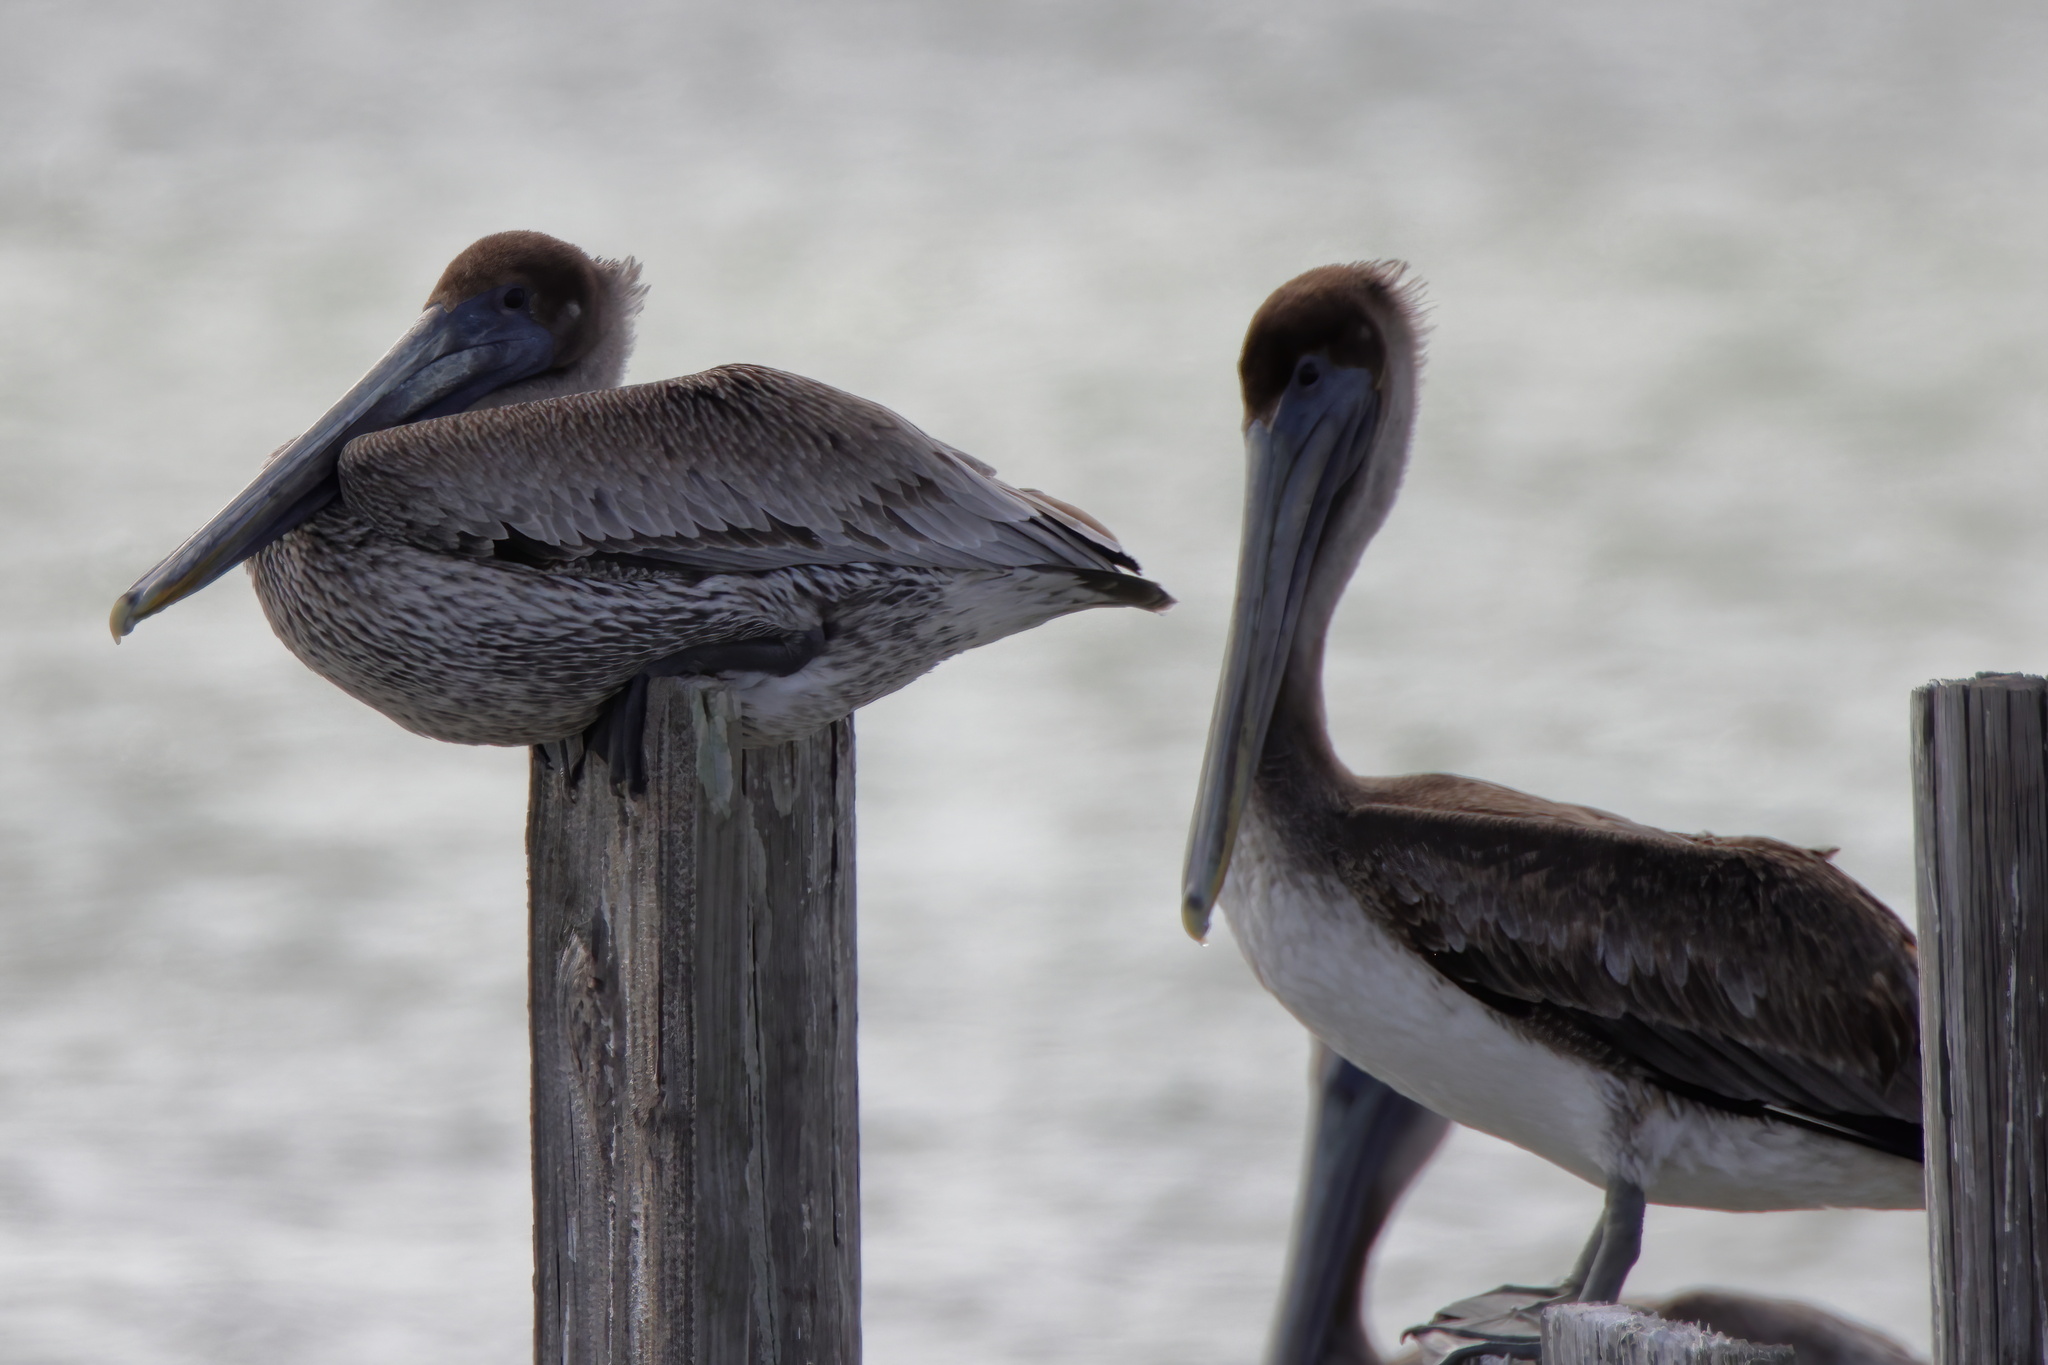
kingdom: Animalia
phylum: Chordata
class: Aves
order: Pelecaniformes
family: Pelecanidae
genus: Pelecanus
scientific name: Pelecanus occidentalis
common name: Brown pelican
